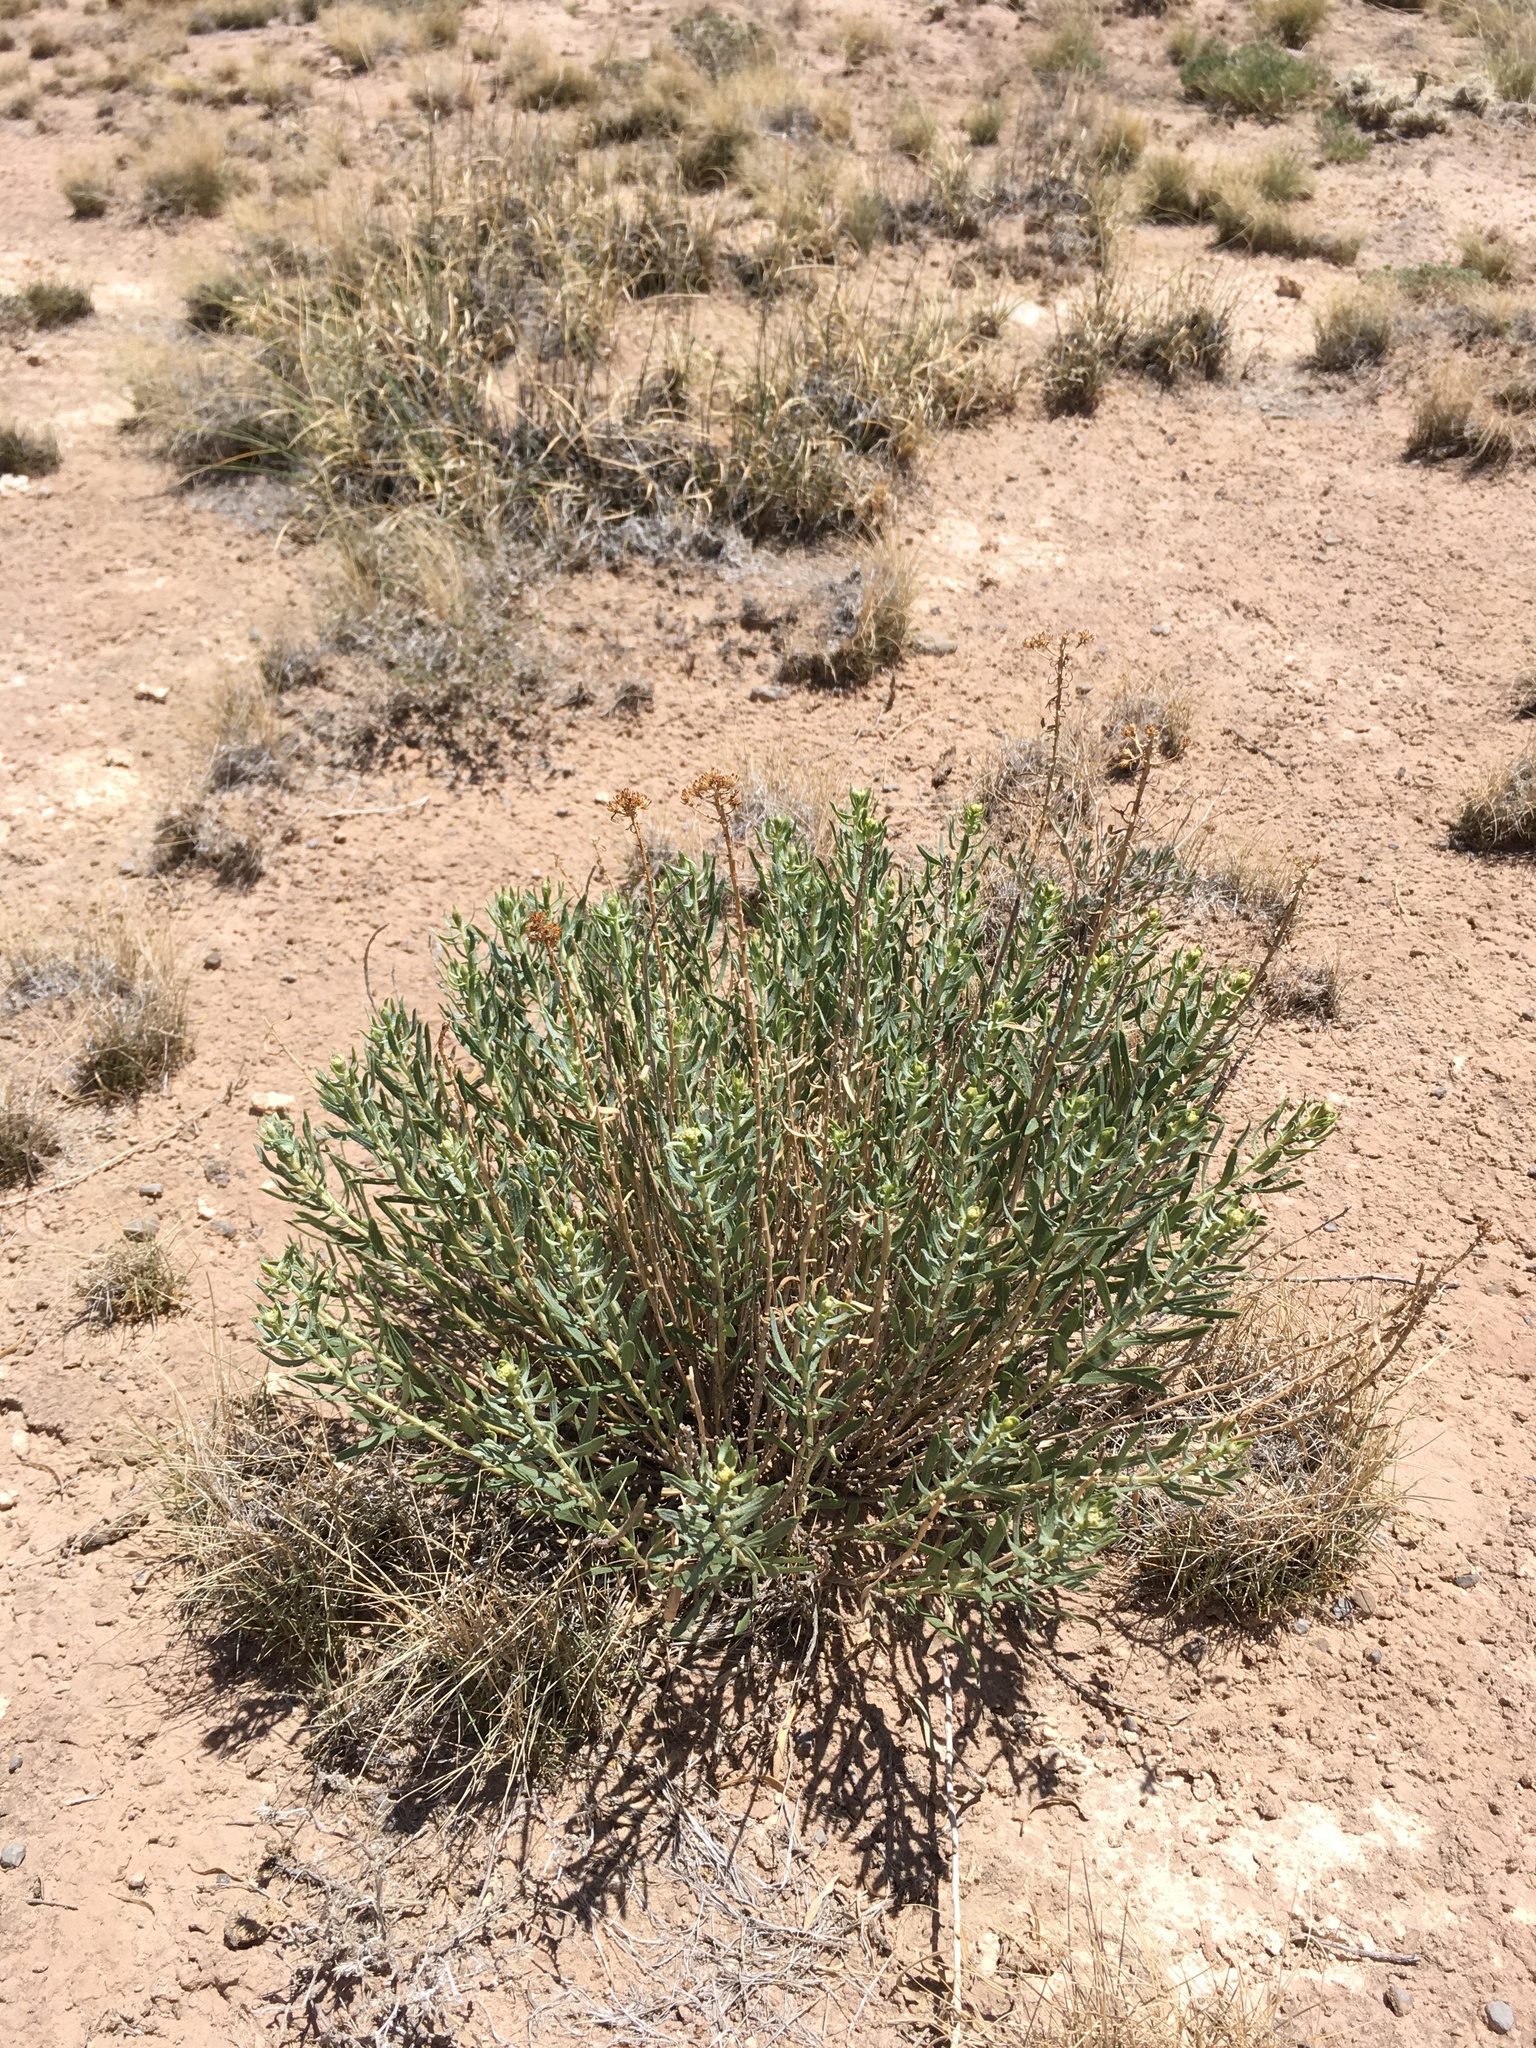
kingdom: Plantae
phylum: Tracheophyta
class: Magnoliopsida
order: Asterales
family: Asteraceae
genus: Isocoma
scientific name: Isocoma pluriflora
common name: Southern jimmyweed
